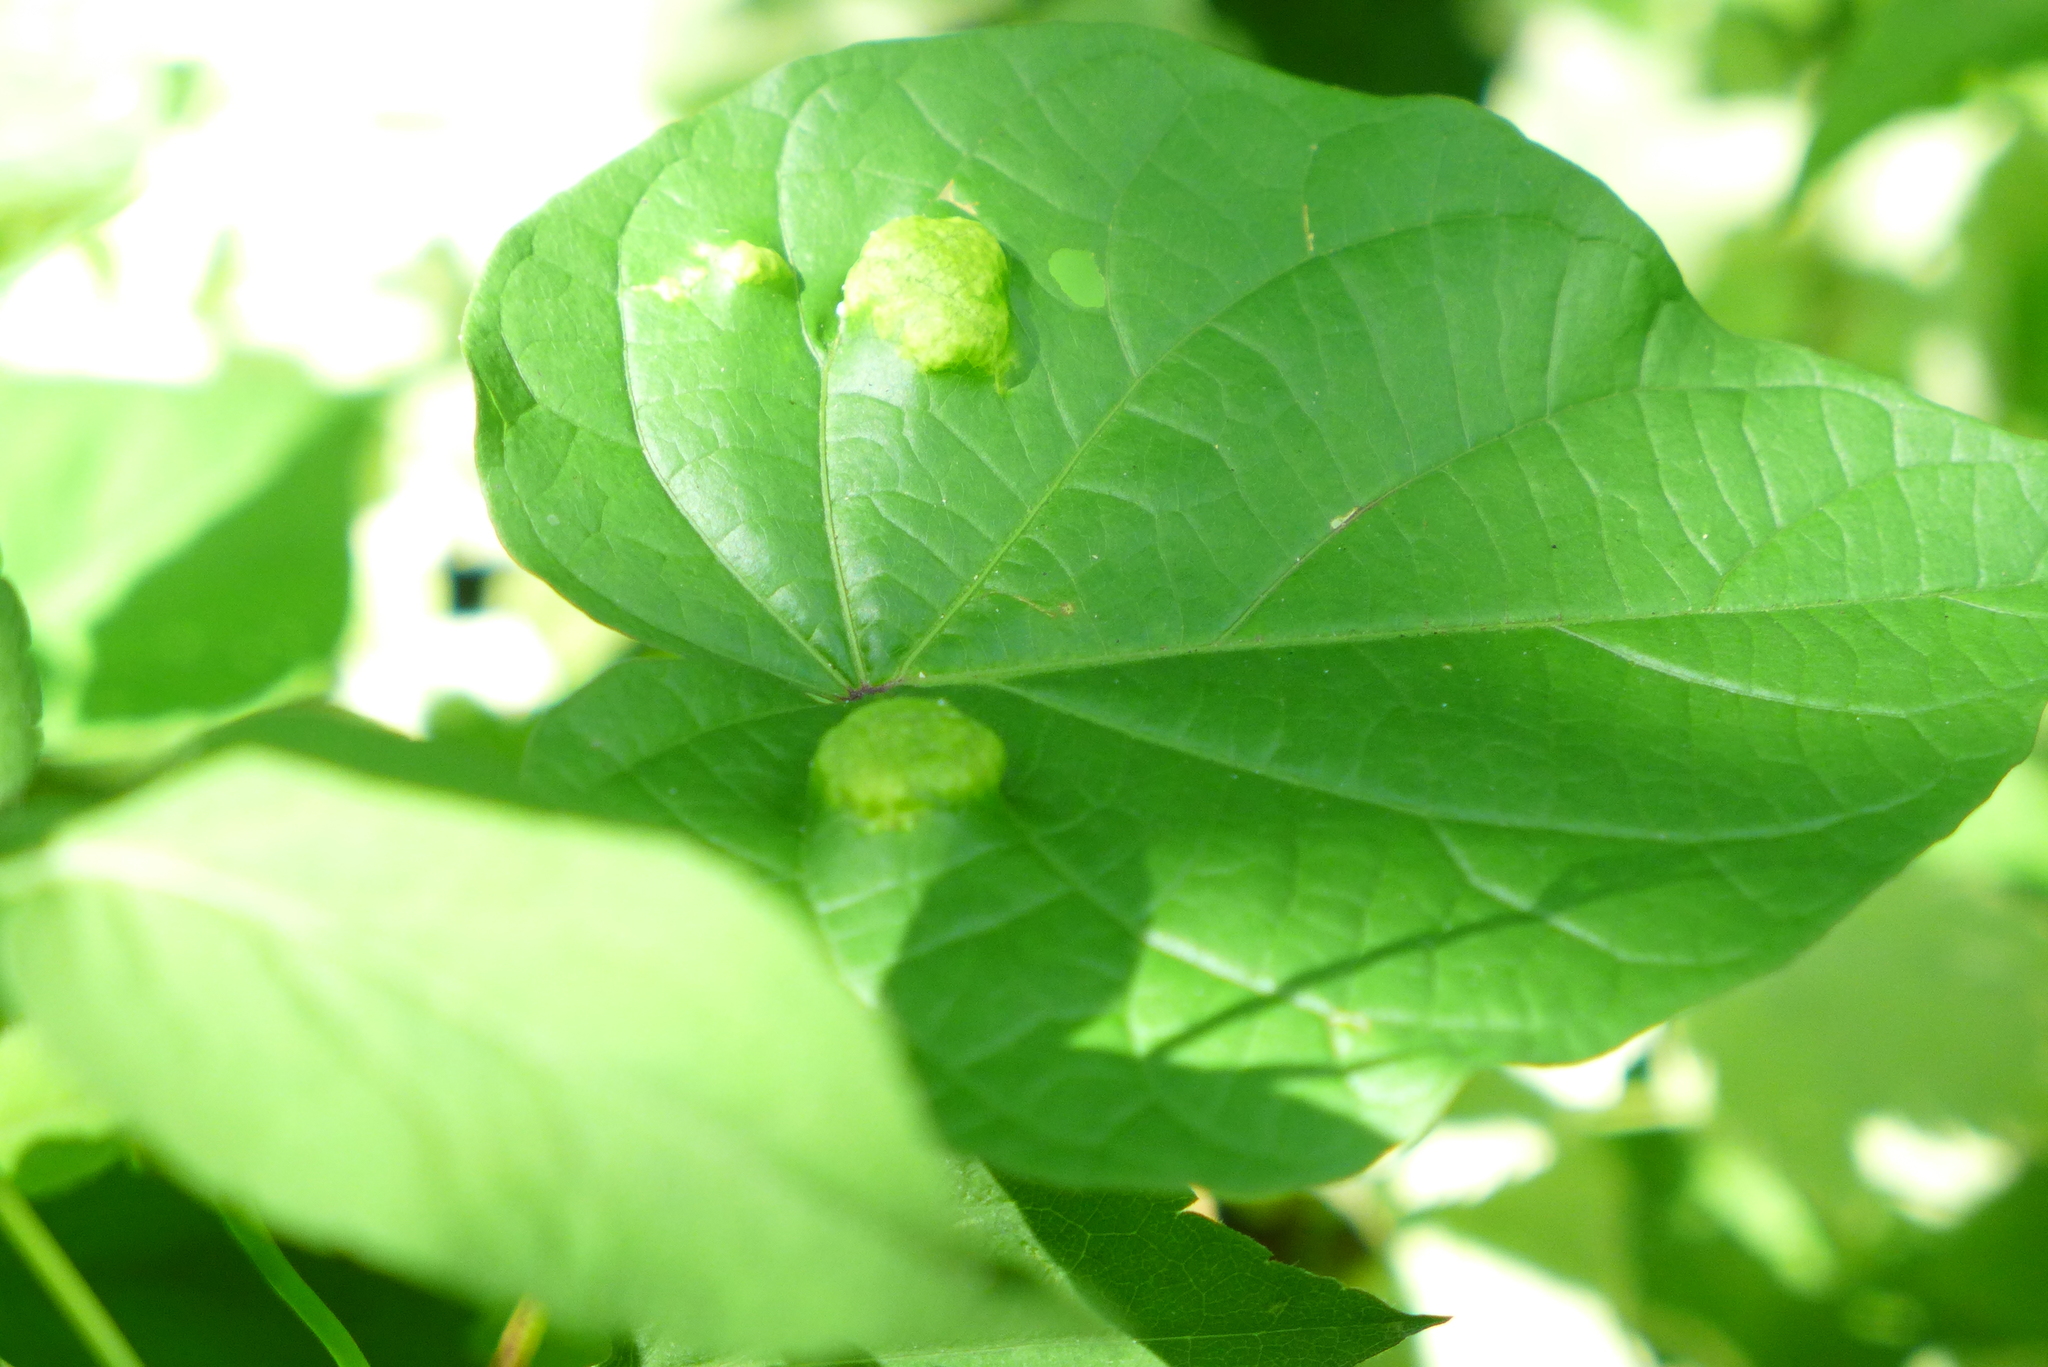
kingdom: Chromista
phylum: Oomycota
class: Peronosporea
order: Albuginales
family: Albuginaceae
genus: Albugo
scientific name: Albugo ipomoeae-panduratae
